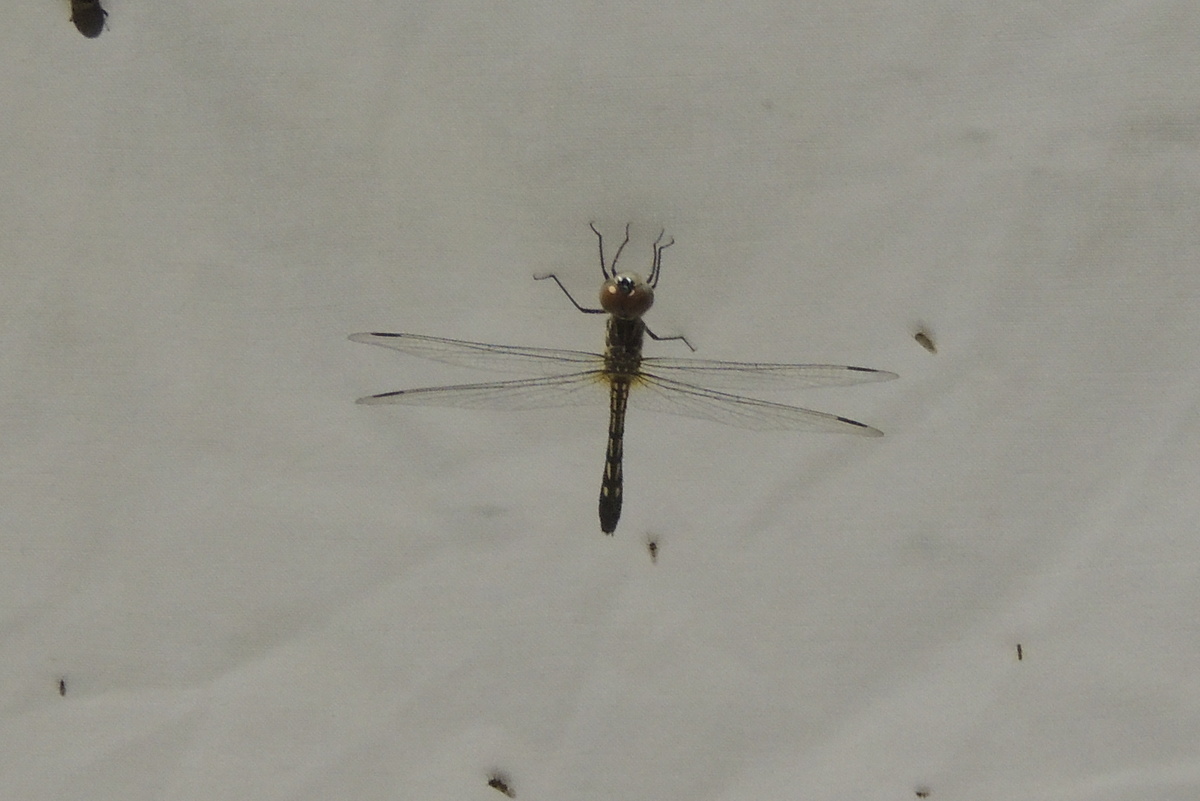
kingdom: Animalia
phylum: Arthropoda
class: Insecta
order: Odonata
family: Libellulidae
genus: Pachydiplax
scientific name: Pachydiplax longipennis
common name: Blue dasher
